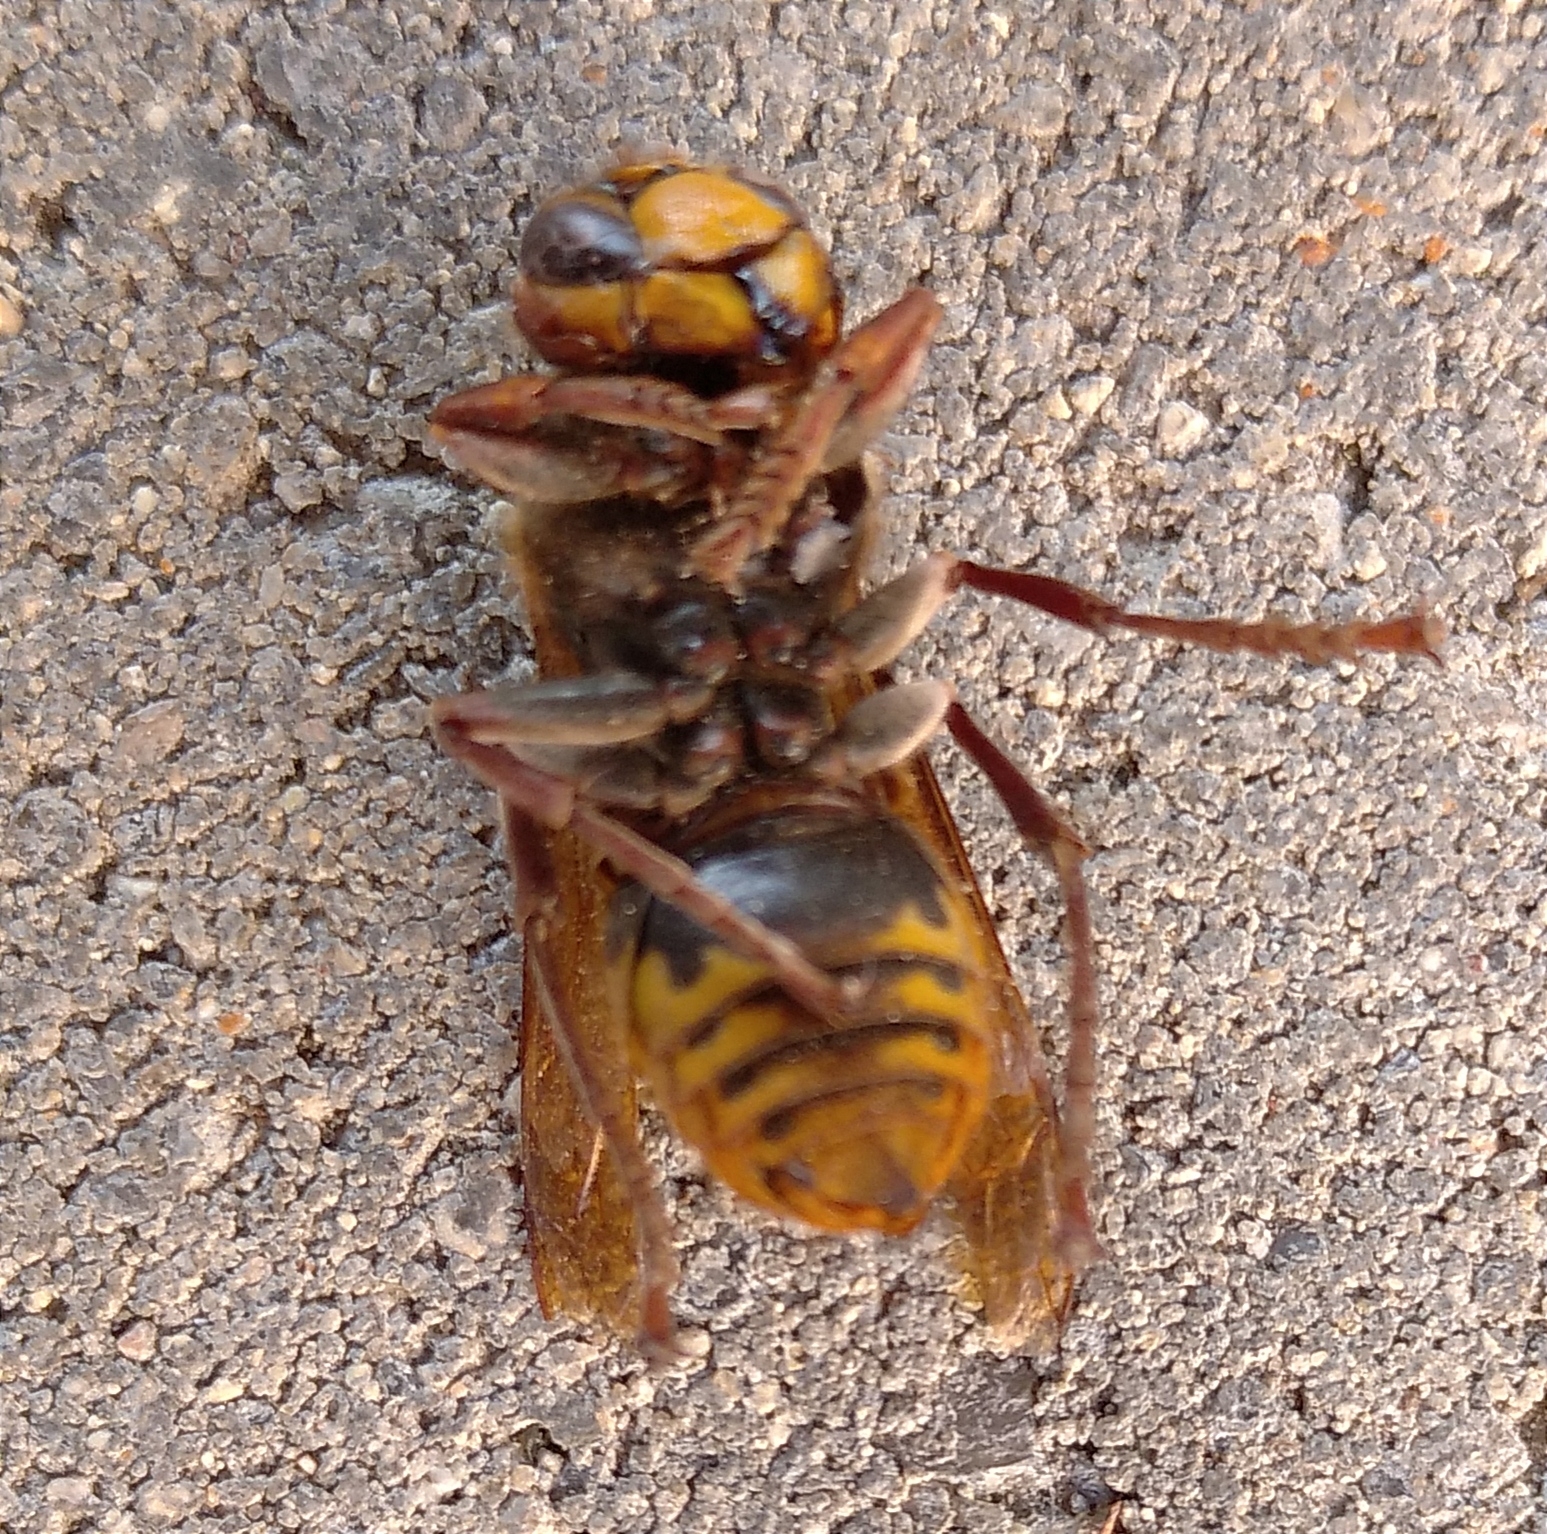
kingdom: Animalia
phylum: Arthropoda
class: Insecta
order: Hymenoptera
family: Vespidae
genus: Vespa
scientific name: Vespa crabro
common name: Hornet
